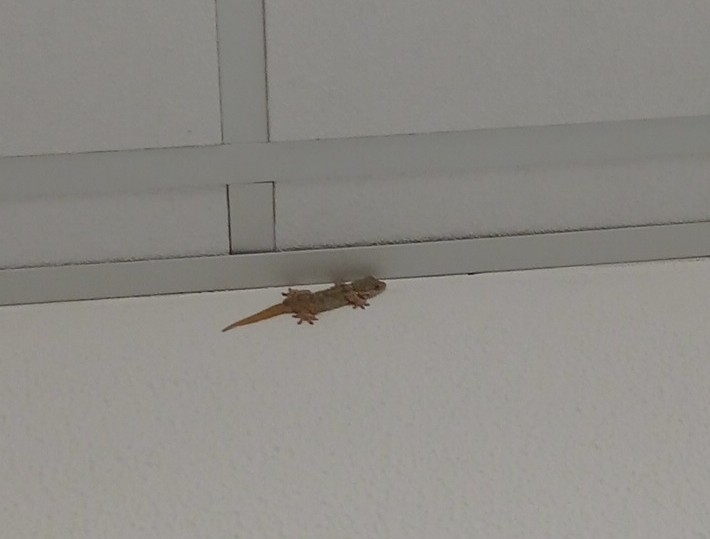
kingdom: Animalia
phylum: Chordata
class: Squamata
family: Phyllodactylidae
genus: Tarentola
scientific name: Tarentola mauritanica
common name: Moorish gecko
